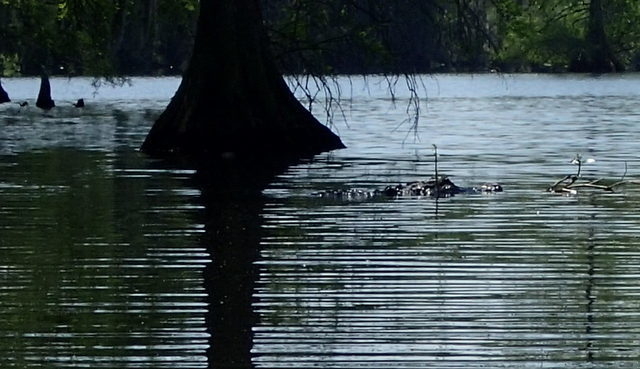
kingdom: Animalia
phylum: Chordata
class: Crocodylia
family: Alligatoridae
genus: Alligator
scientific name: Alligator mississippiensis
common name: American alligator
